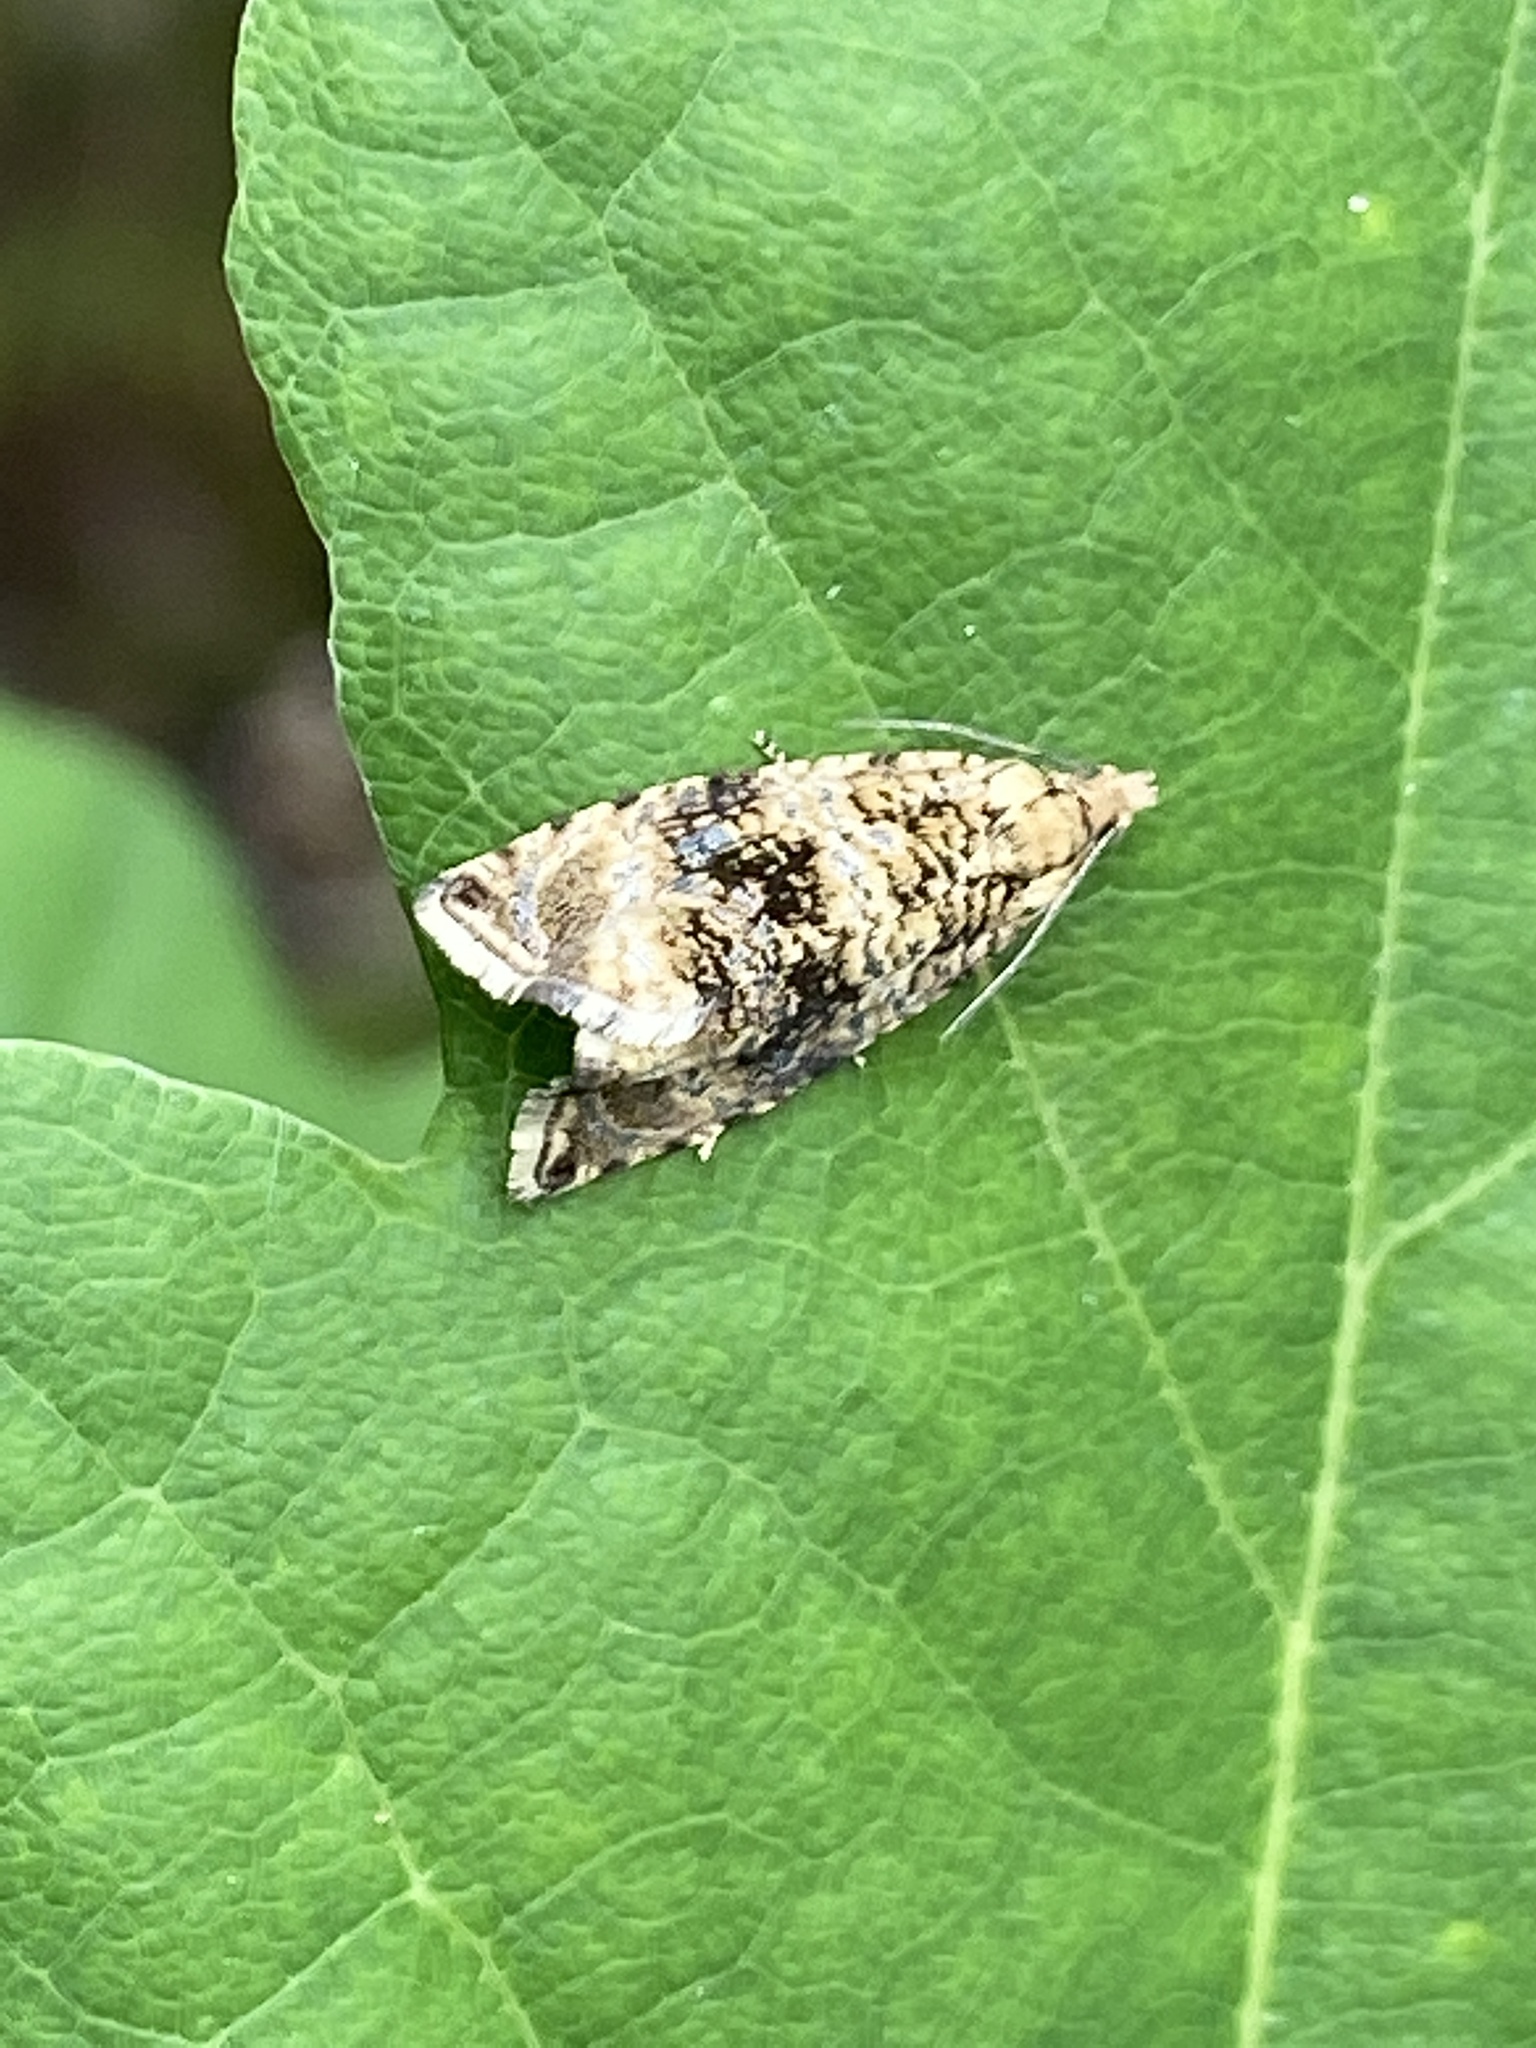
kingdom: Animalia
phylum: Arthropoda
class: Insecta
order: Lepidoptera
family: Tortricidae
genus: Syricoris
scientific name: Syricoris lacunana
